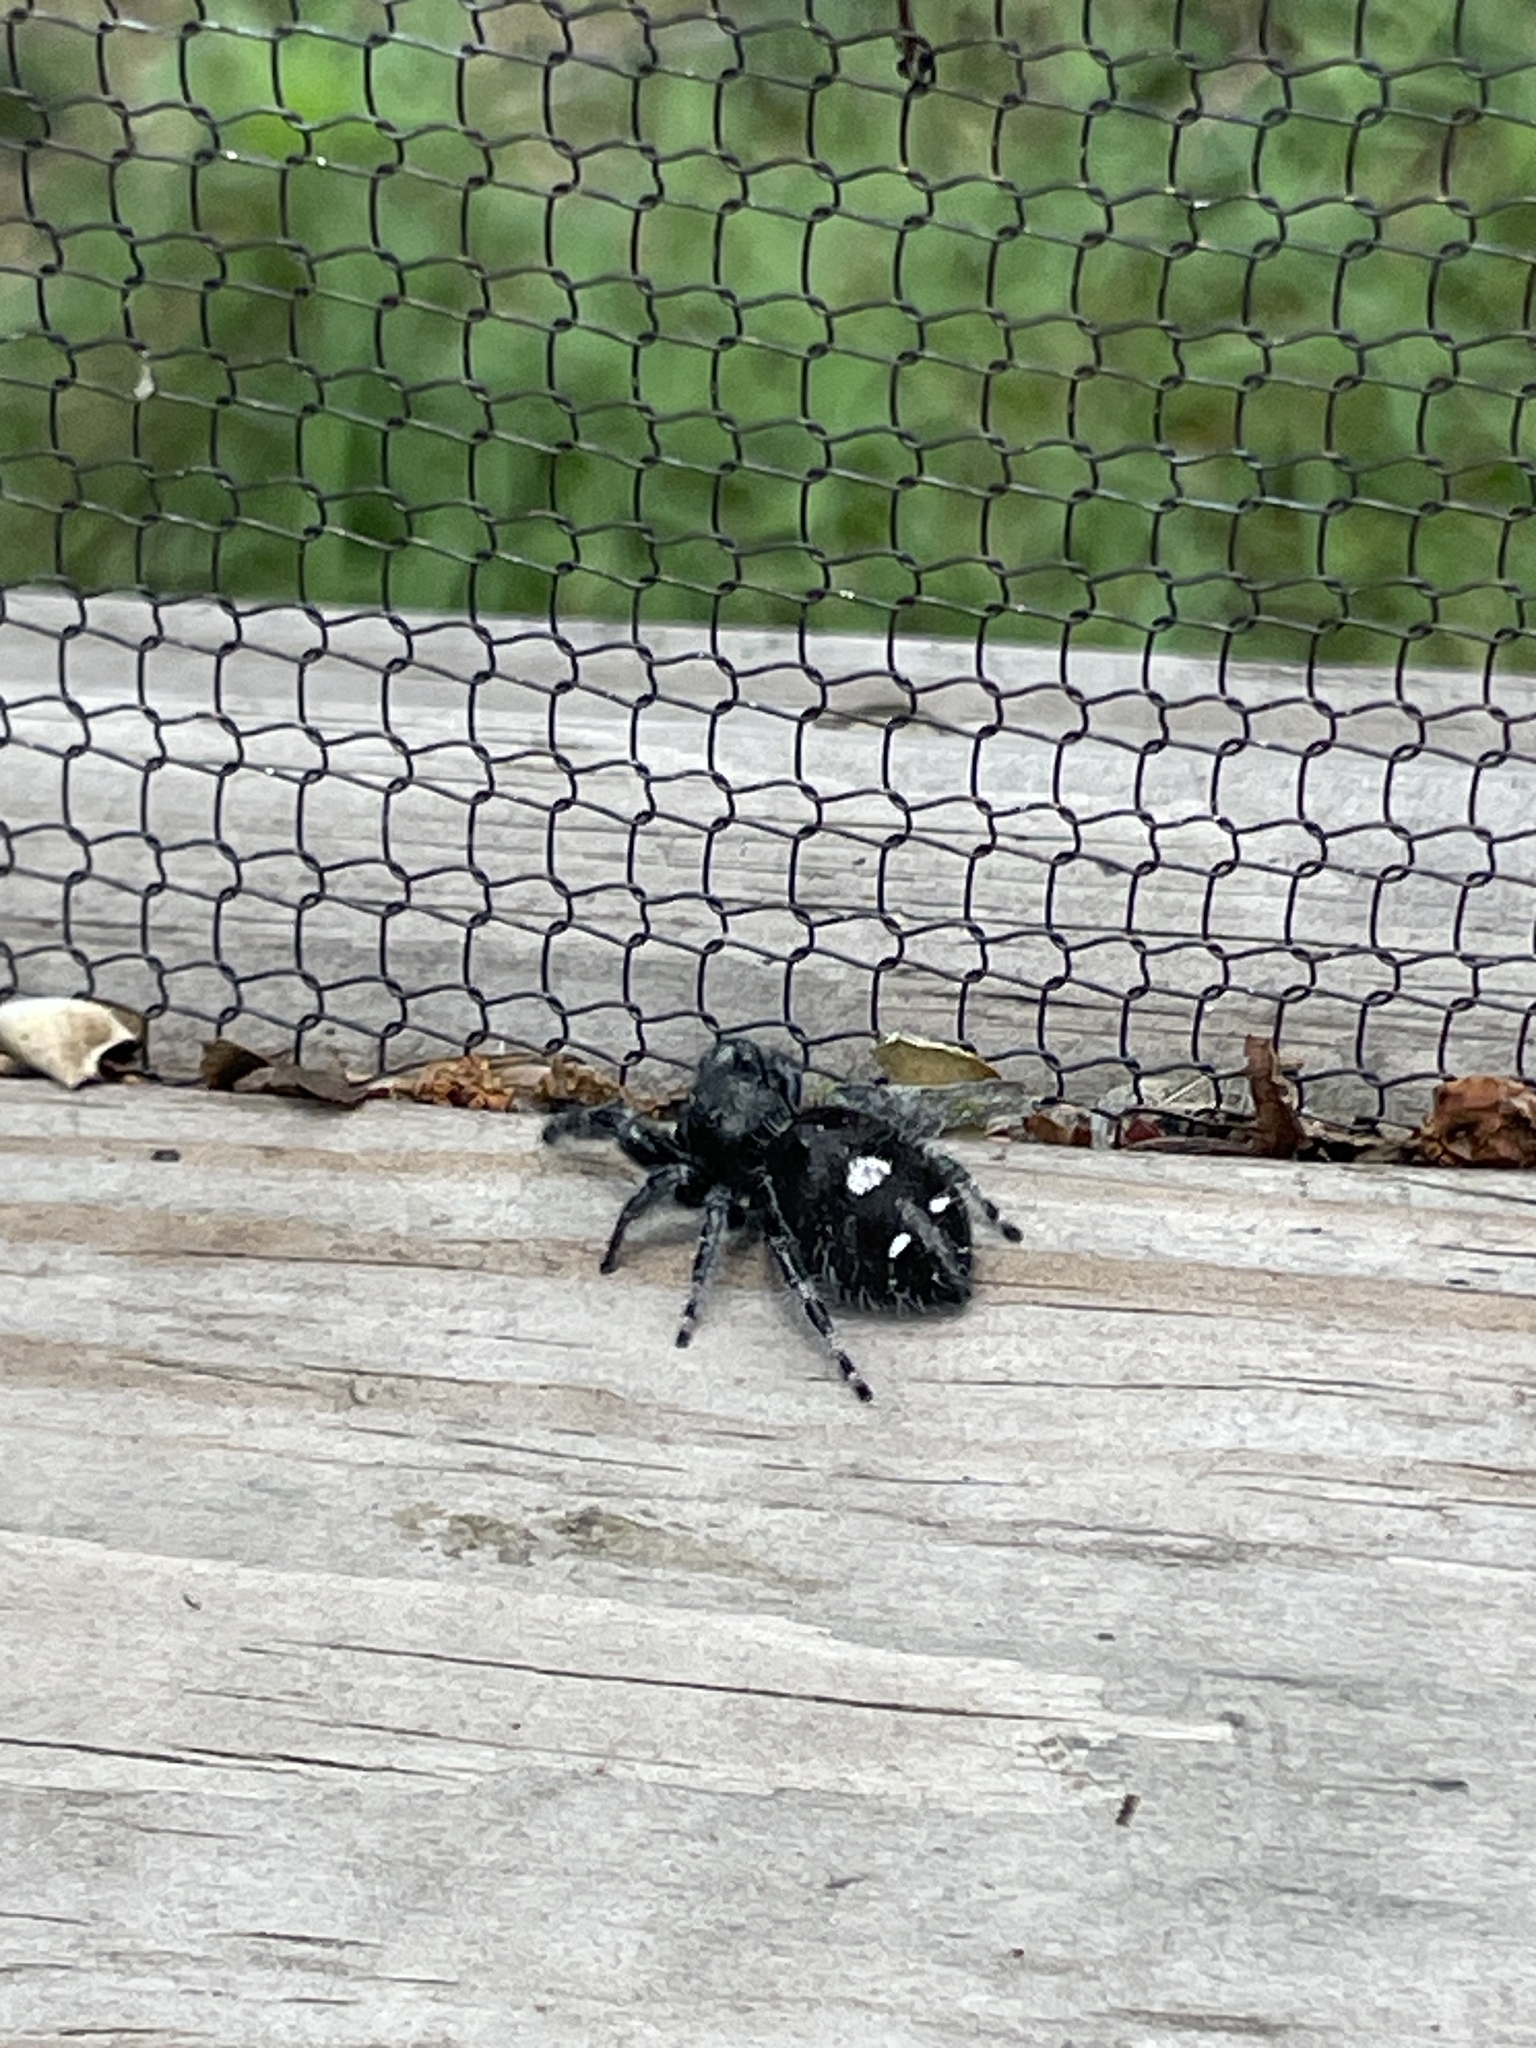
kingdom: Animalia
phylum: Arthropoda
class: Arachnida
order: Araneae
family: Salticidae
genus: Phidippus
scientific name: Phidippus audax
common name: Bold jumper
